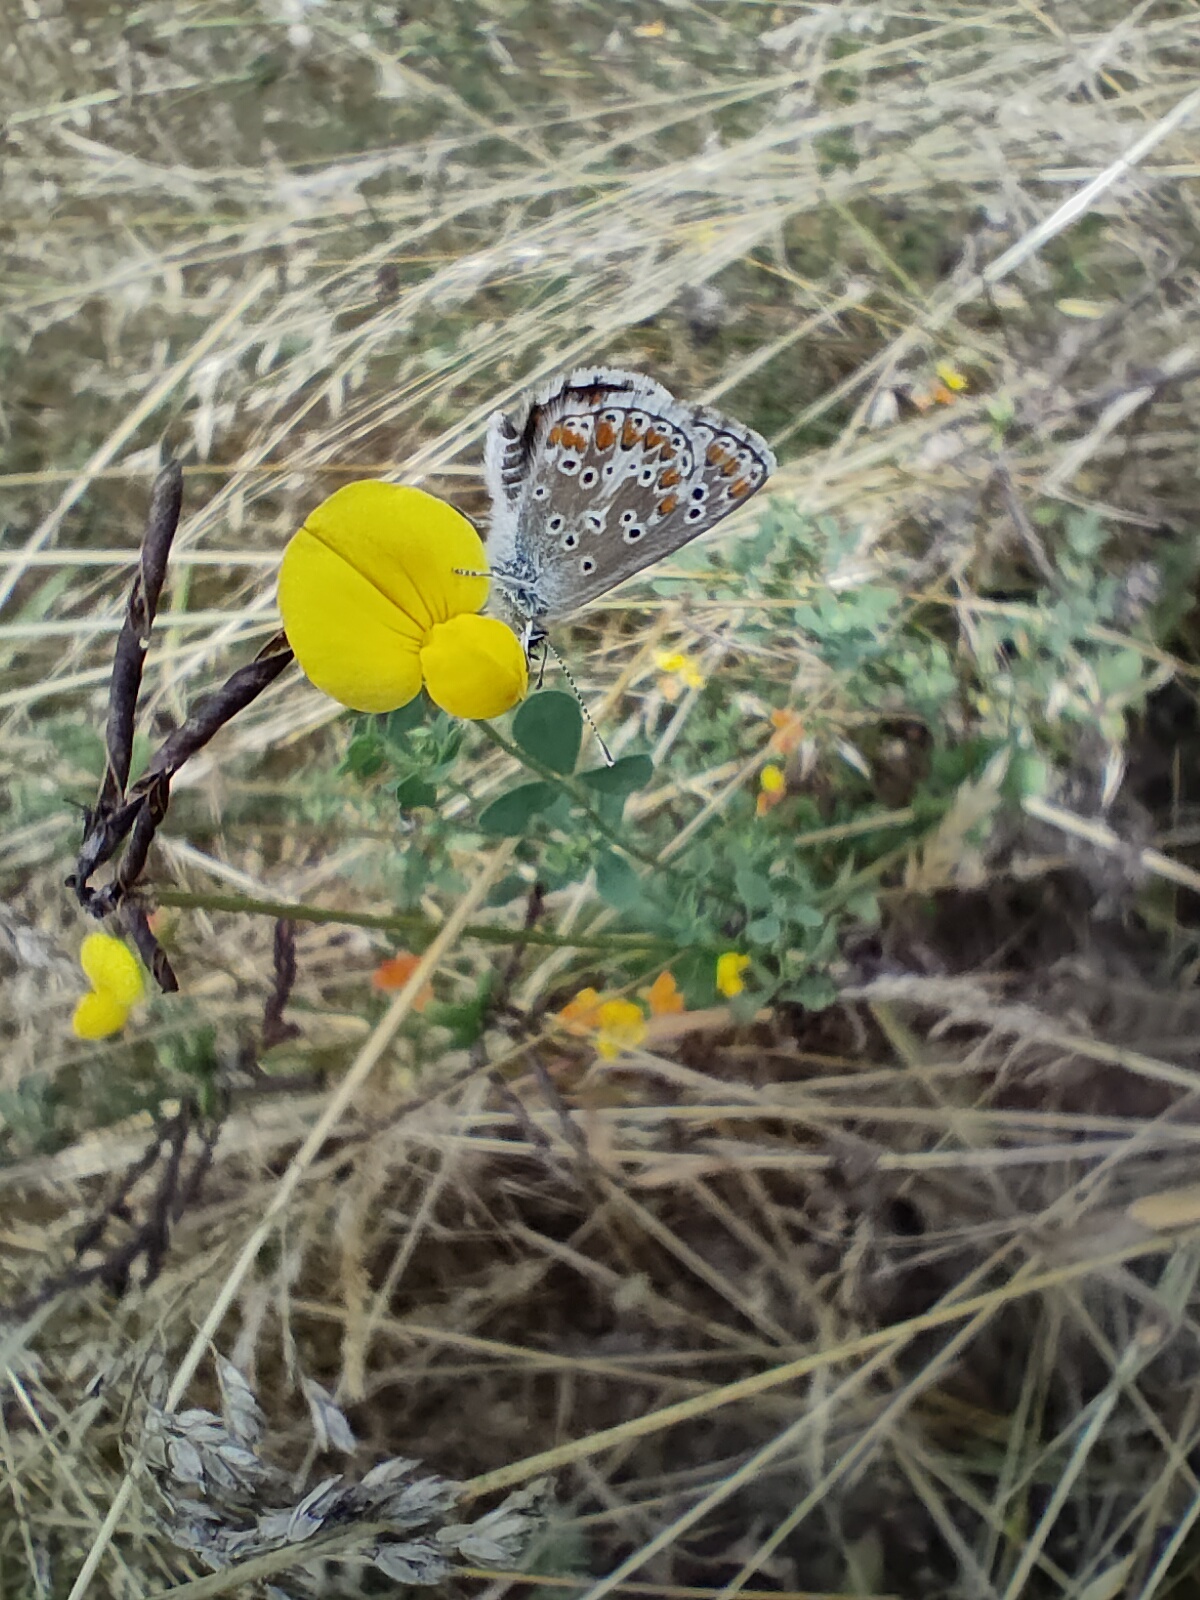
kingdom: Animalia
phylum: Arthropoda
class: Insecta
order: Lepidoptera
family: Lycaenidae
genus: Aricia
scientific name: Aricia agestis
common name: Brown argus
